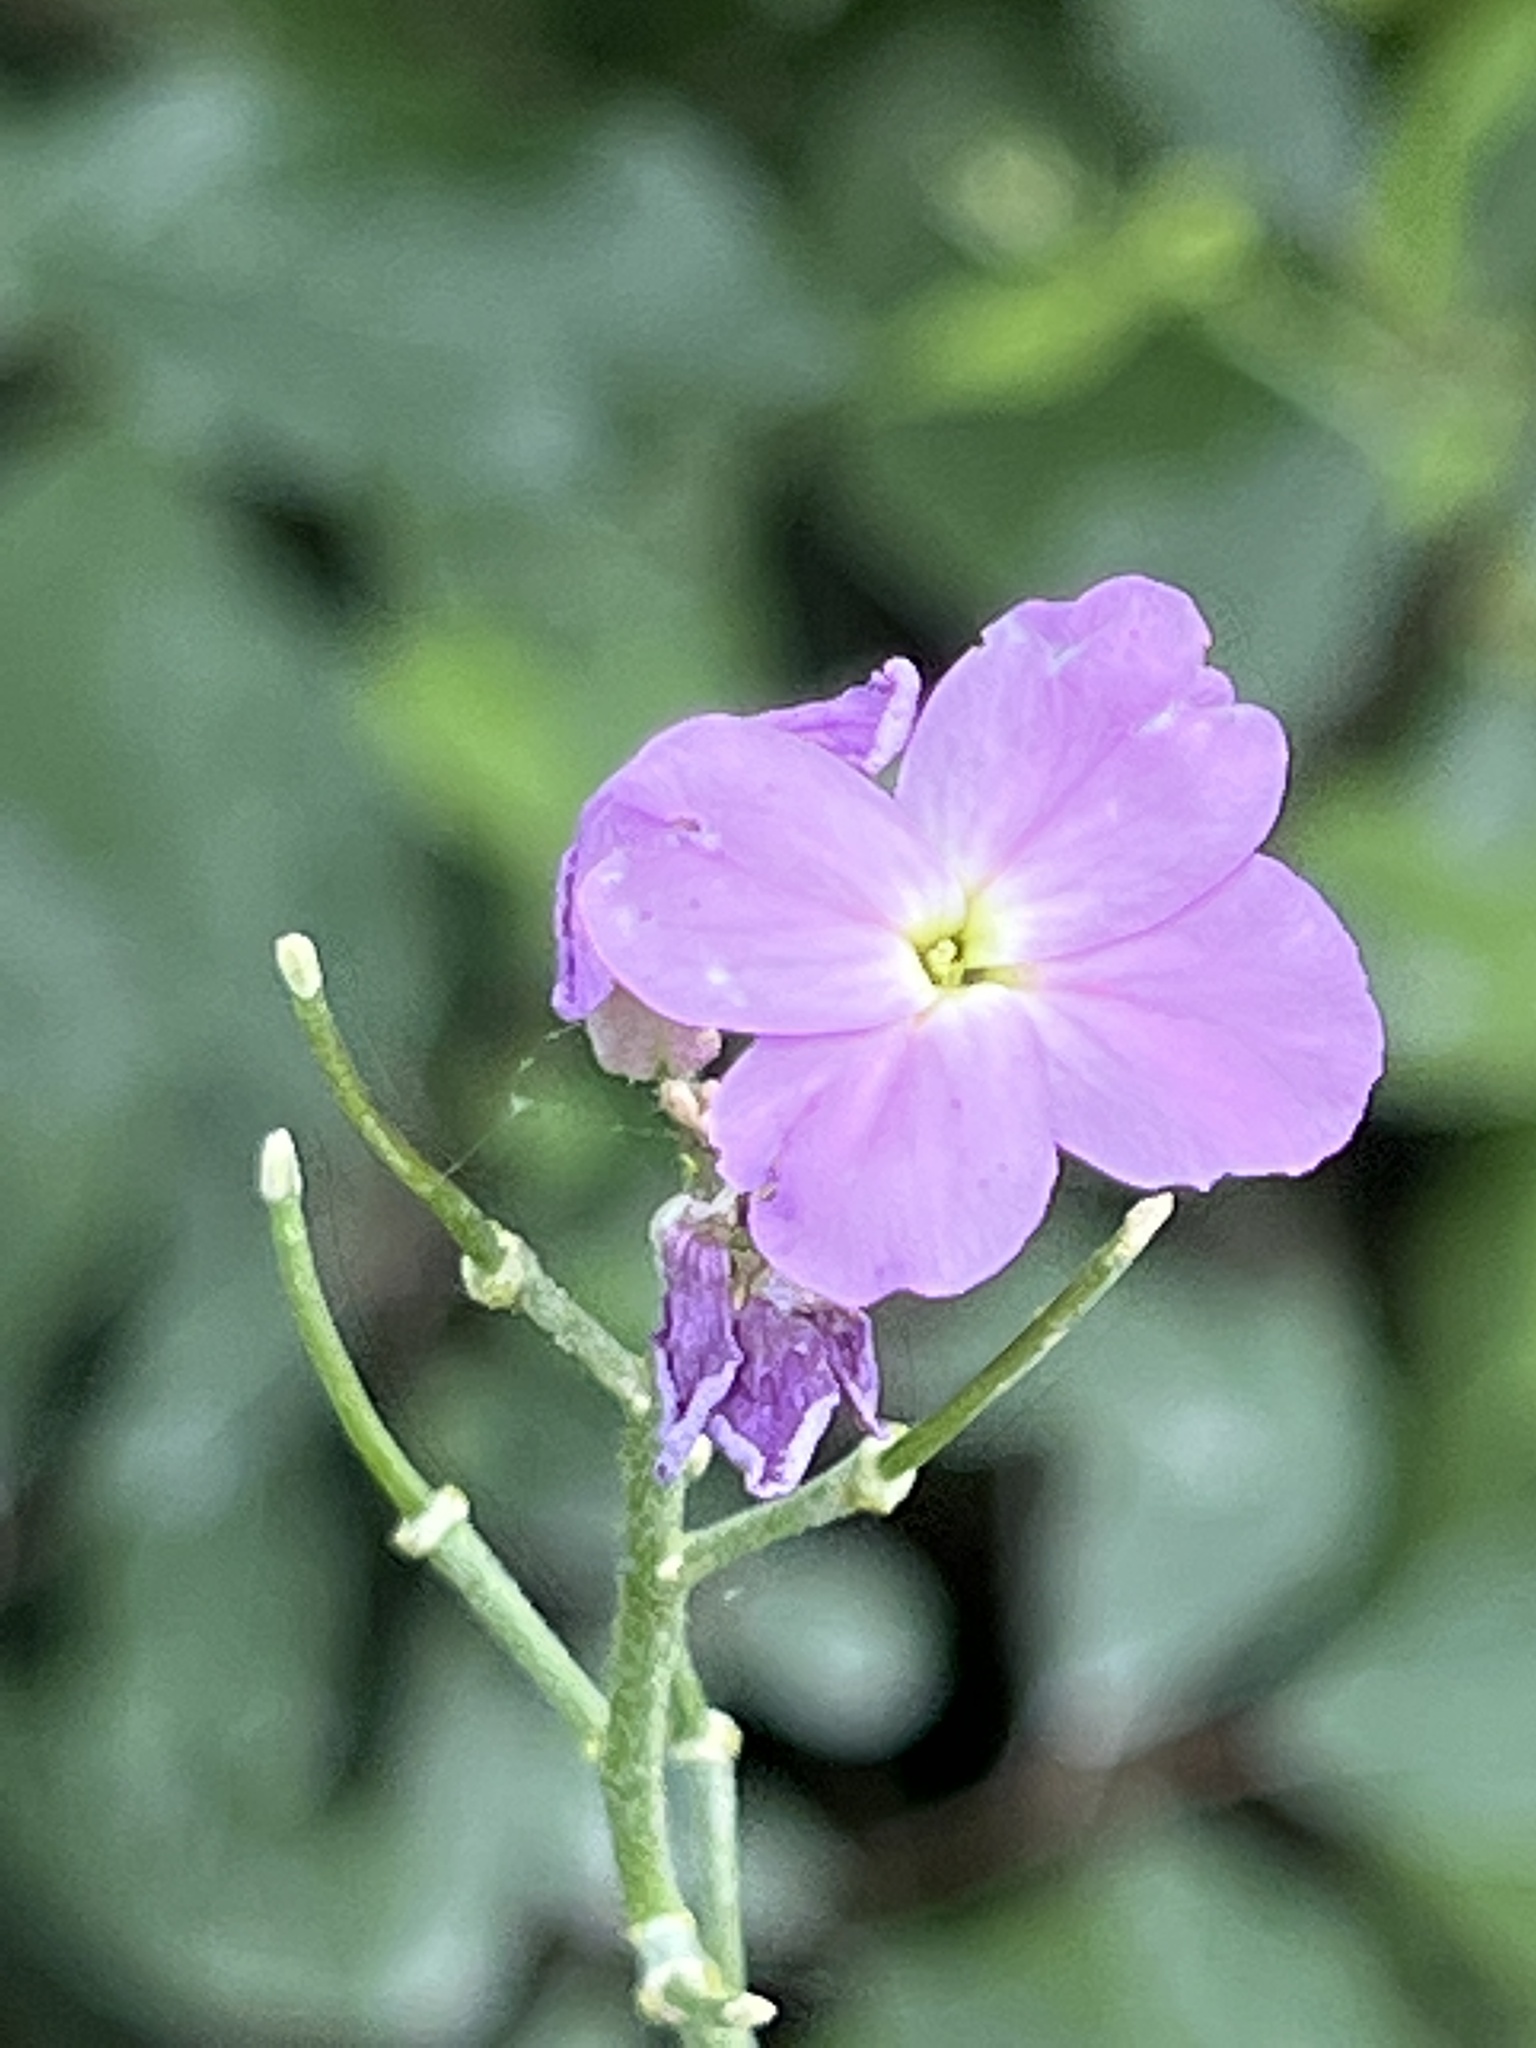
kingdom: Plantae
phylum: Tracheophyta
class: Magnoliopsida
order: Brassicales
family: Brassicaceae
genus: Hesperis
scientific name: Hesperis matronalis
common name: Dame's-violet
